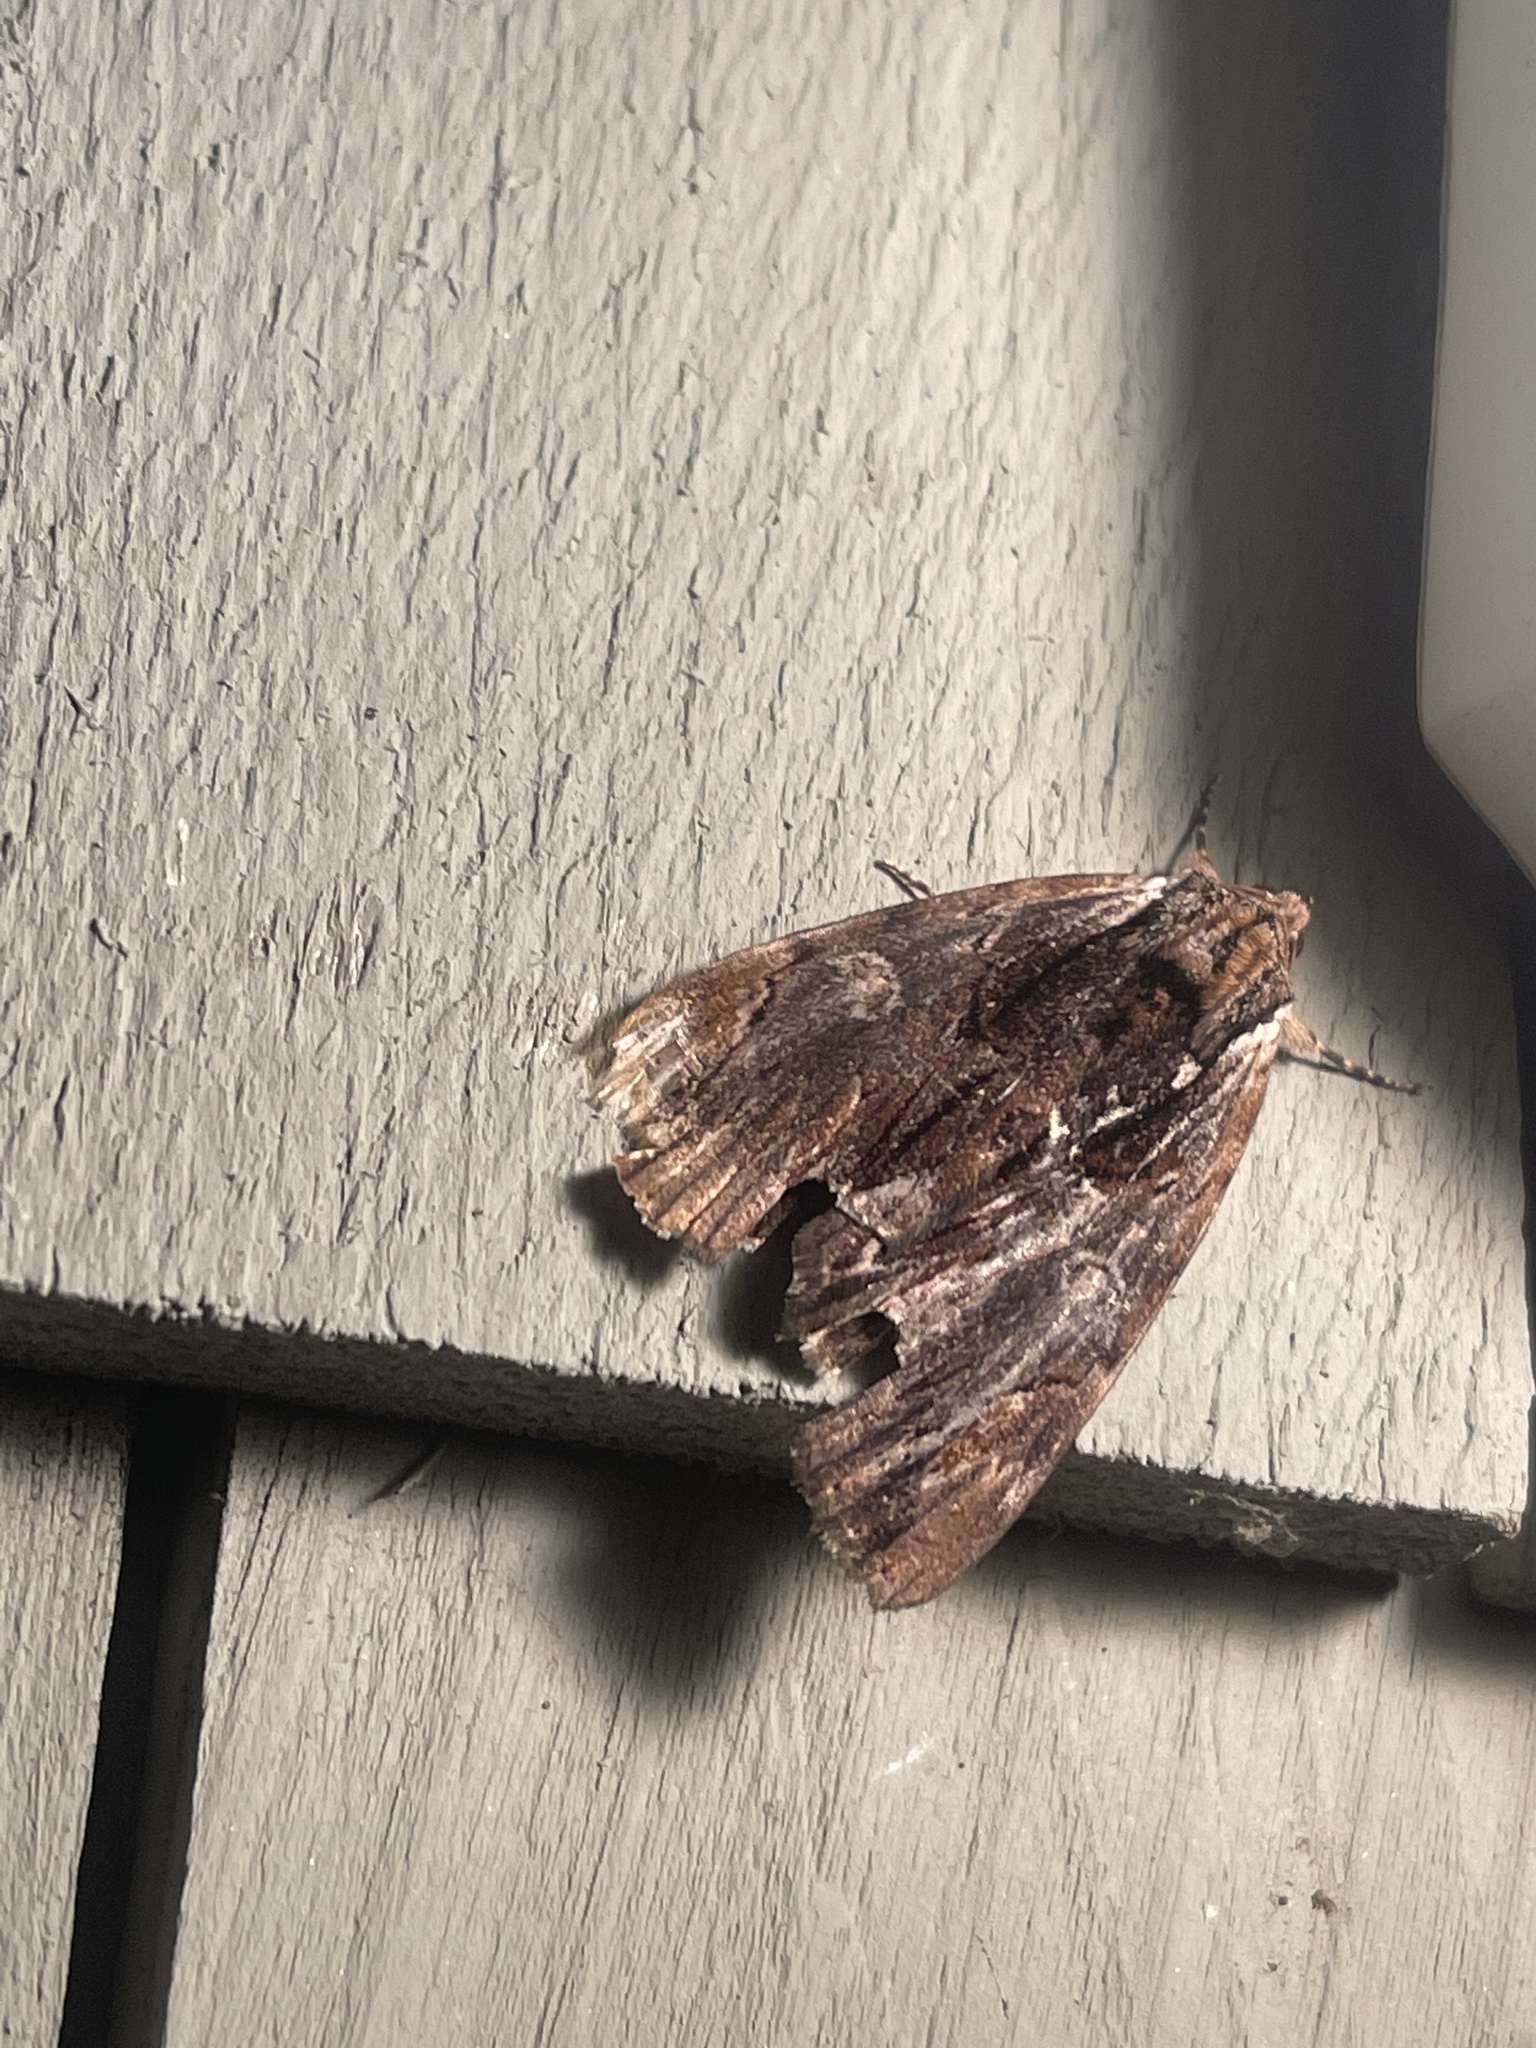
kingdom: Animalia
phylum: Arthropoda
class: Insecta
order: Lepidoptera
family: Erebidae
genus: Catocala
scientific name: Catocala ultronia
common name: Ultronia underwing
